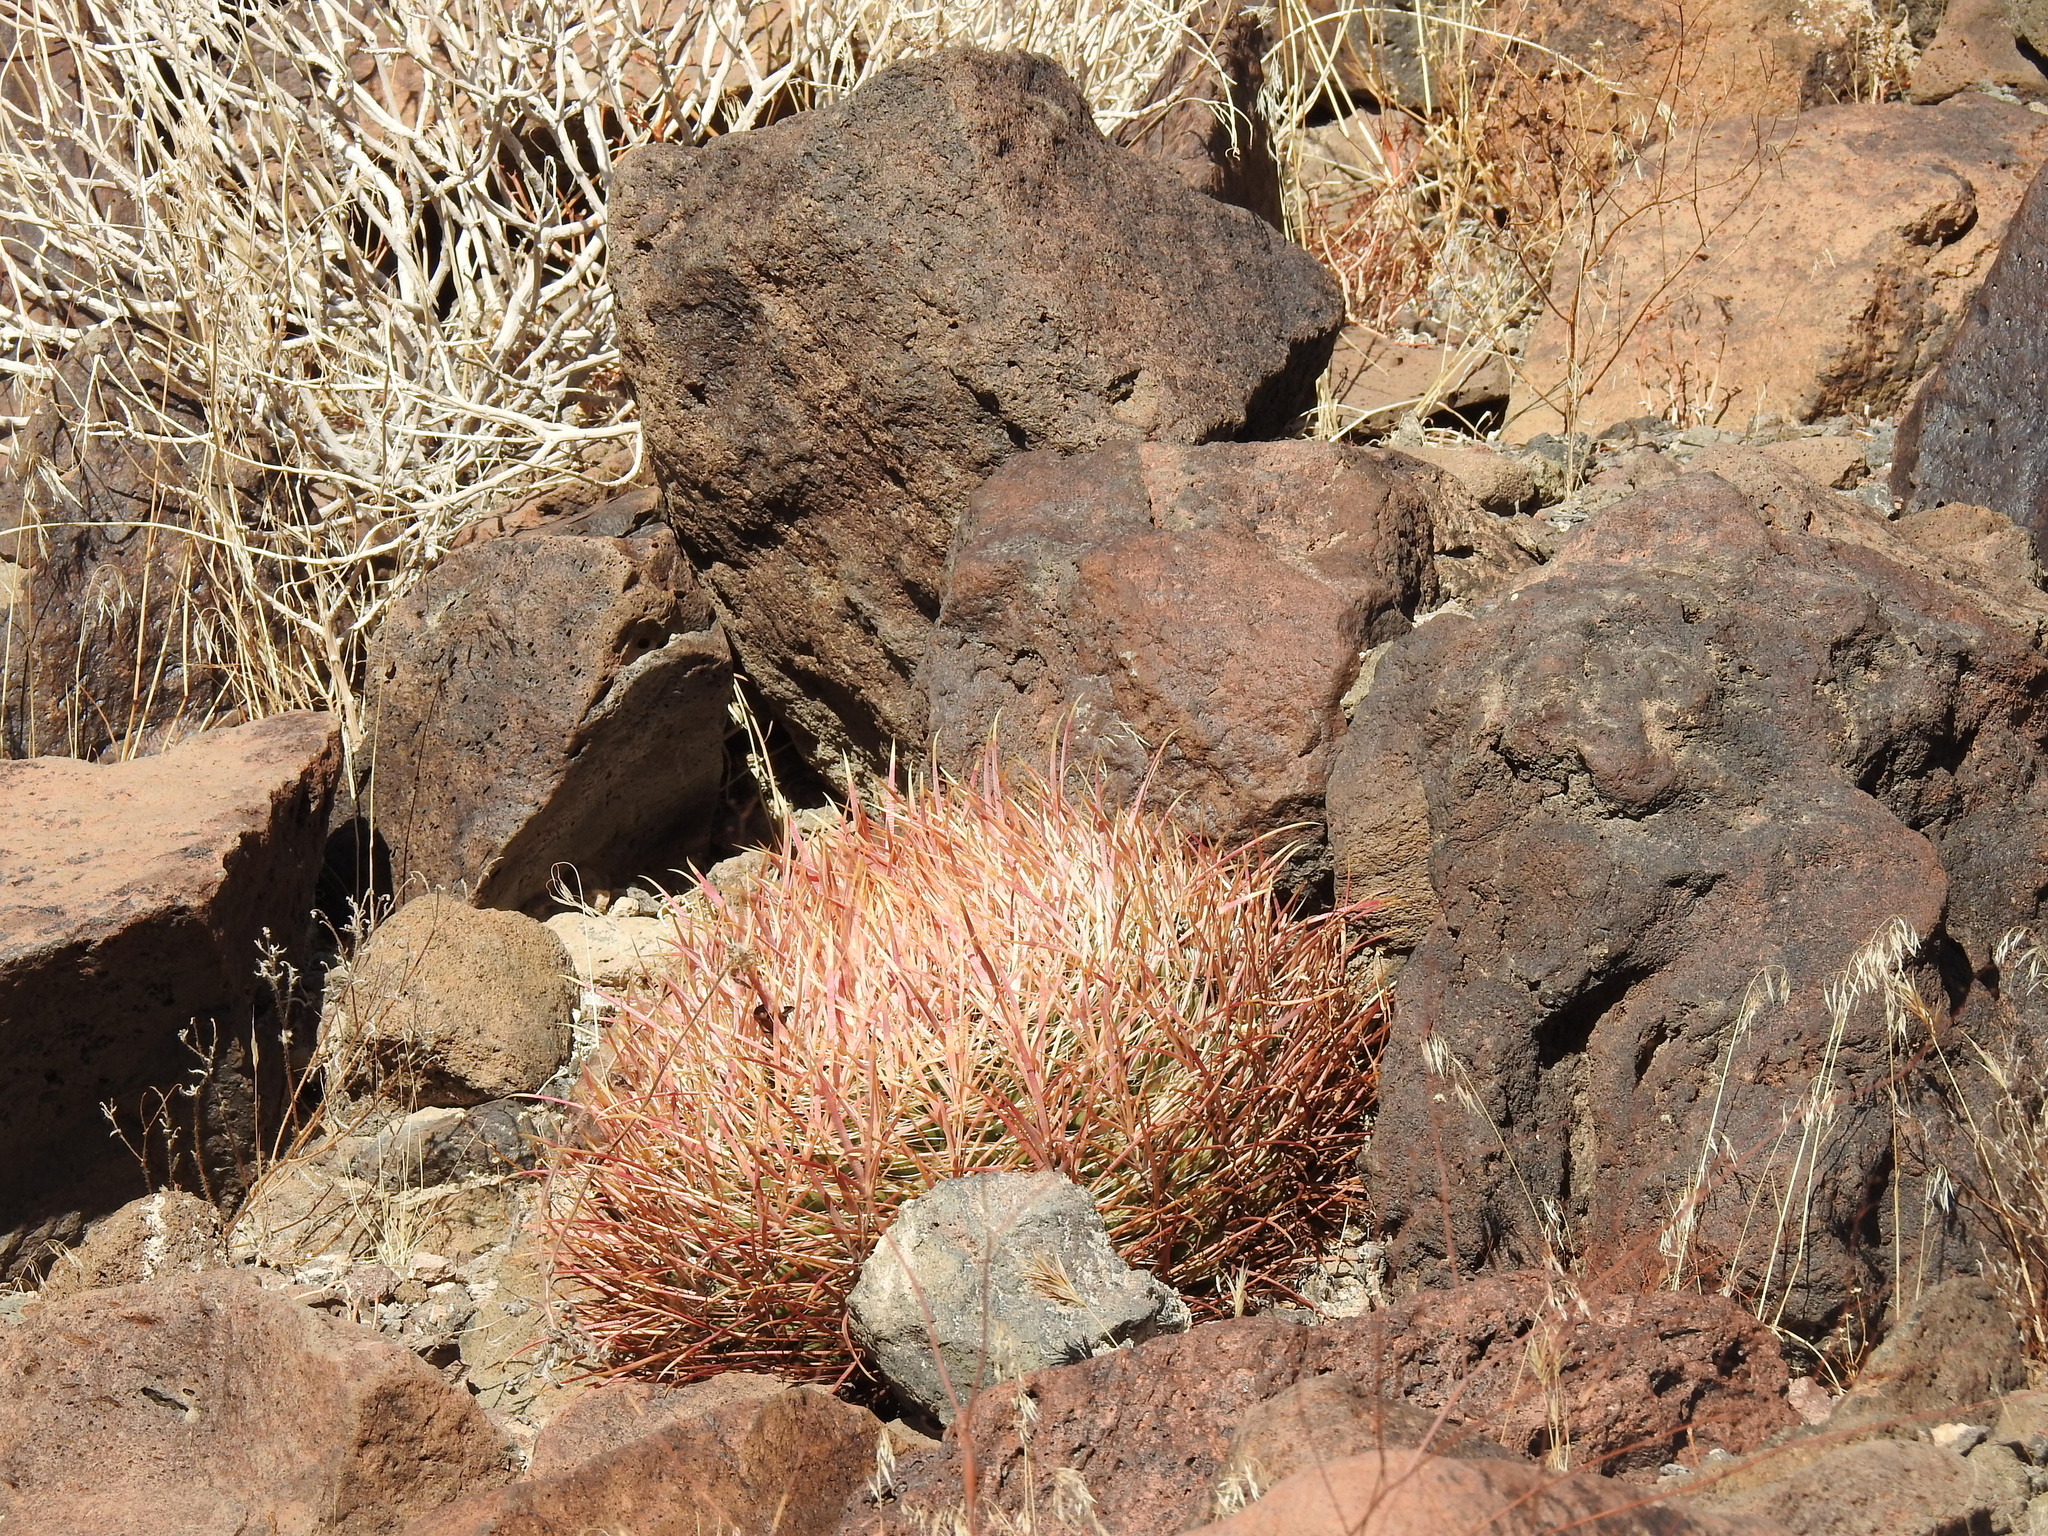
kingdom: Plantae
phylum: Tracheophyta
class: Magnoliopsida
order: Caryophyllales
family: Cactaceae
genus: Ferocactus
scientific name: Ferocactus cylindraceus
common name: California barrel cactus
